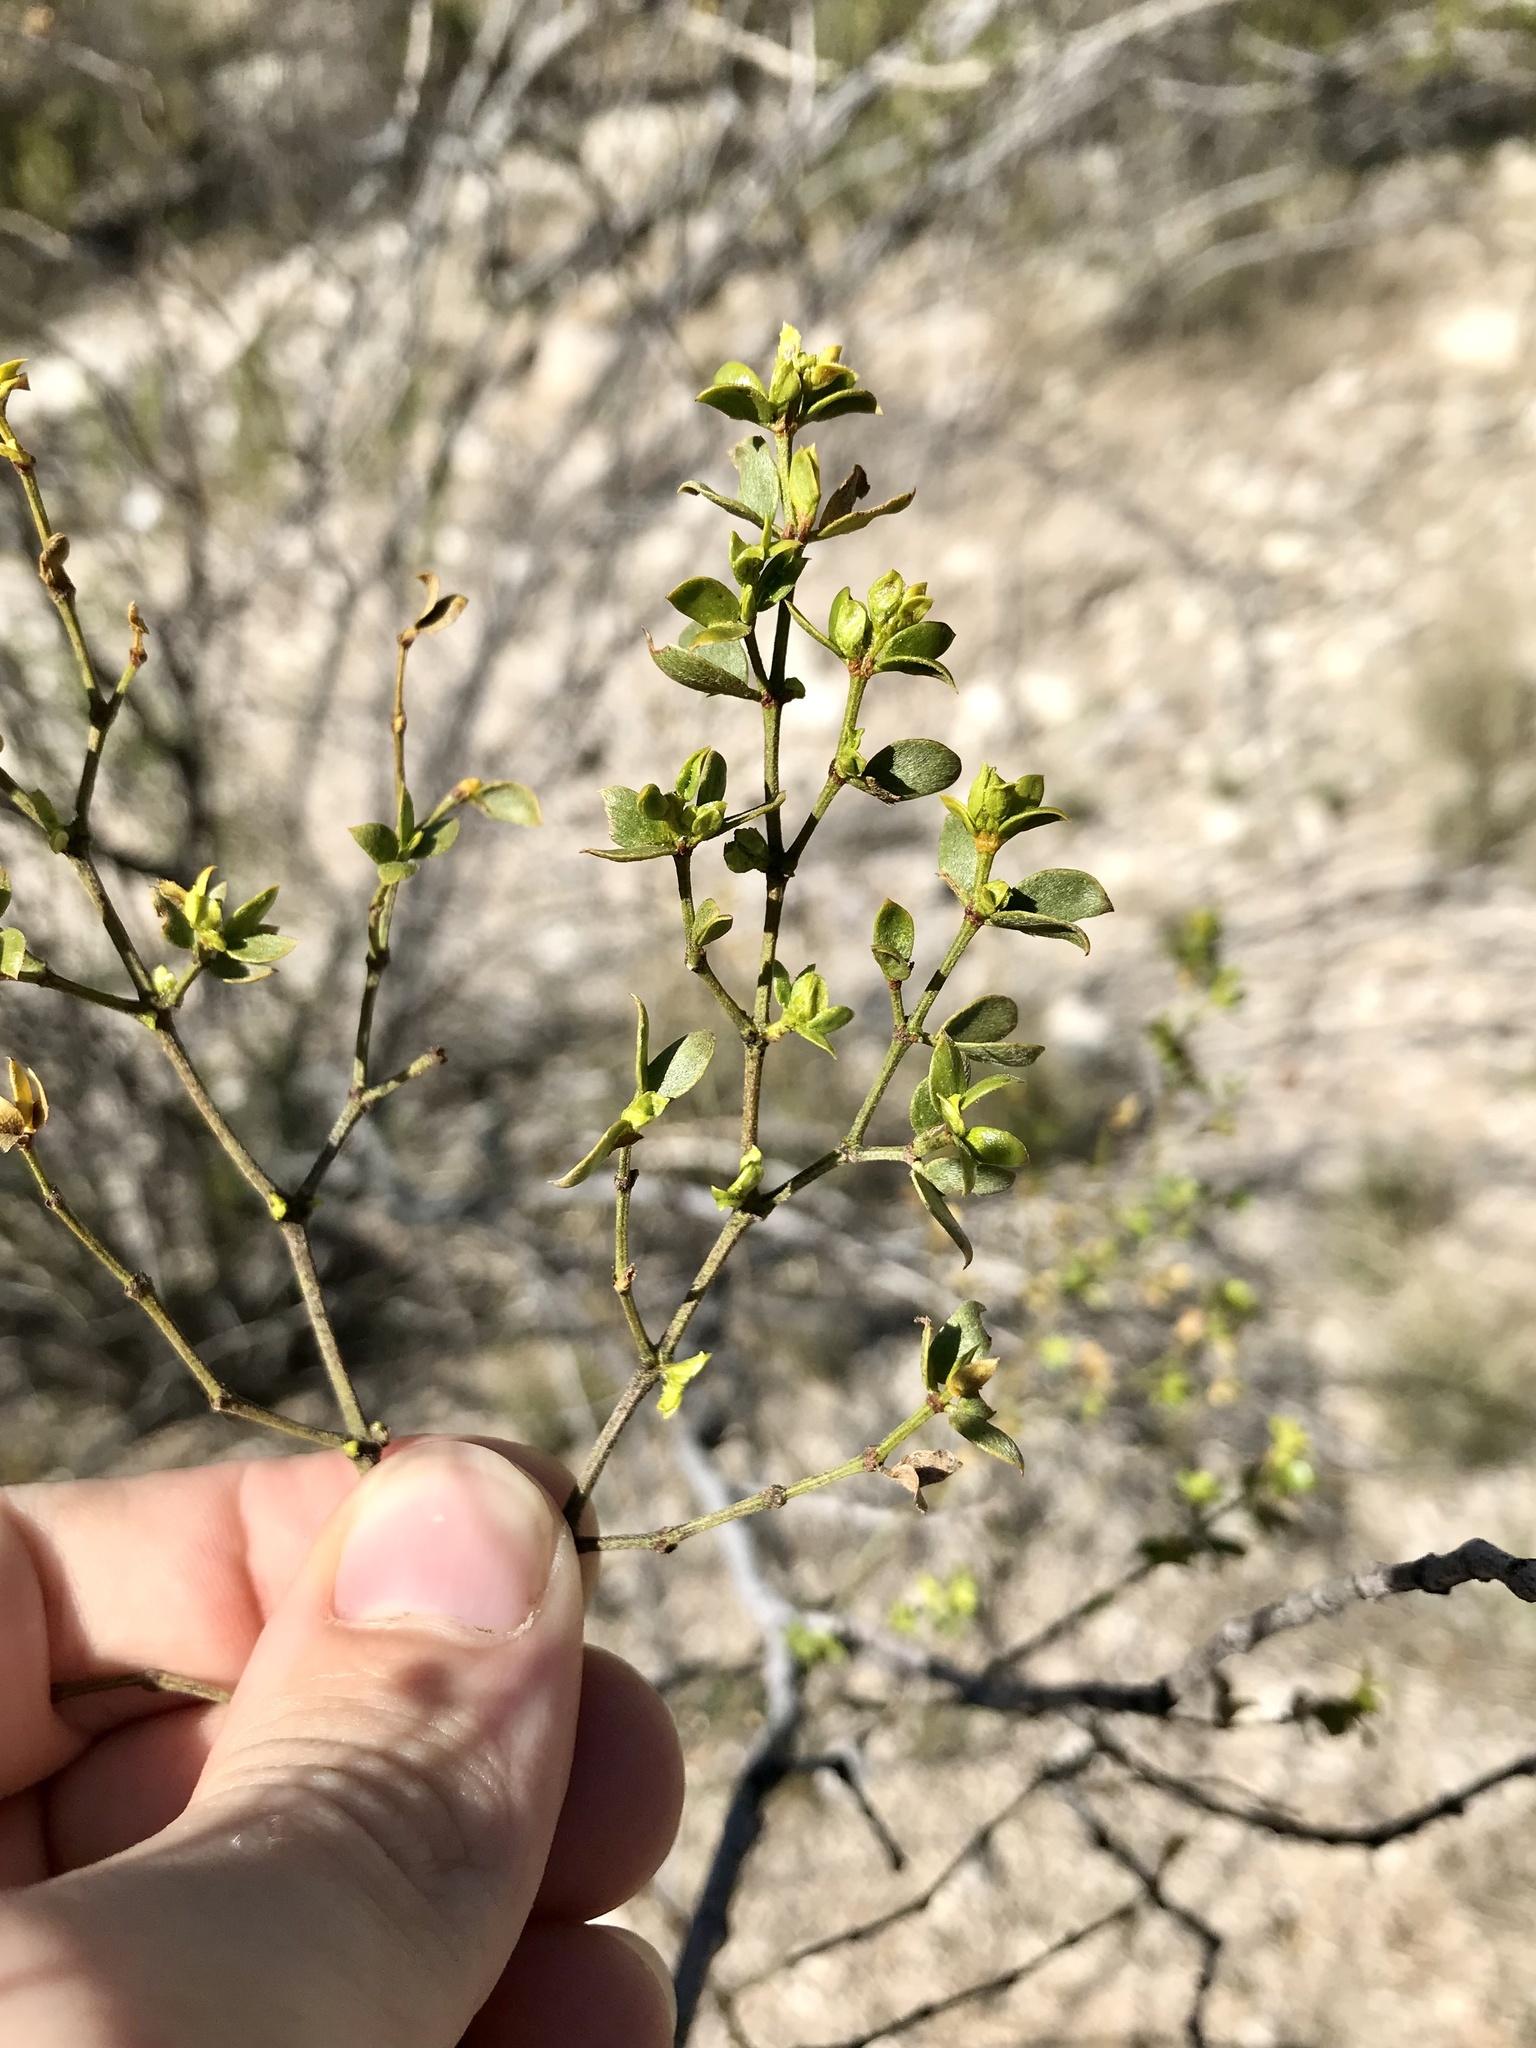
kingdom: Plantae
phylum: Tracheophyta
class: Magnoliopsida
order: Zygophyllales
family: Zygophyllaceae
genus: Larrea
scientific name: Larrea tridentata
